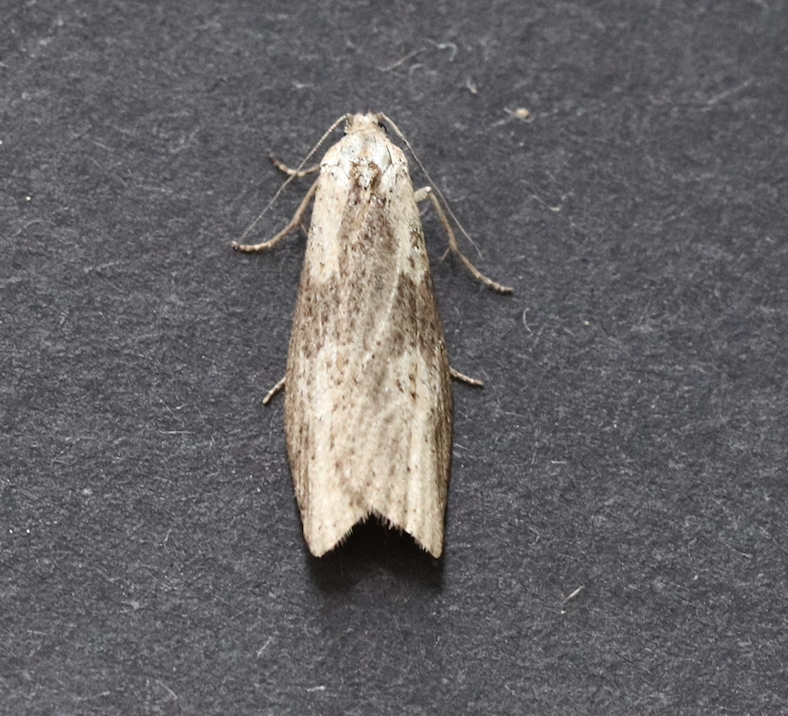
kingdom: Animalia
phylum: Arthropoda
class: Insecta
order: Lepidoptera
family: Tortricidae
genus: Doloploca
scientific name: Doloploca punctulana
